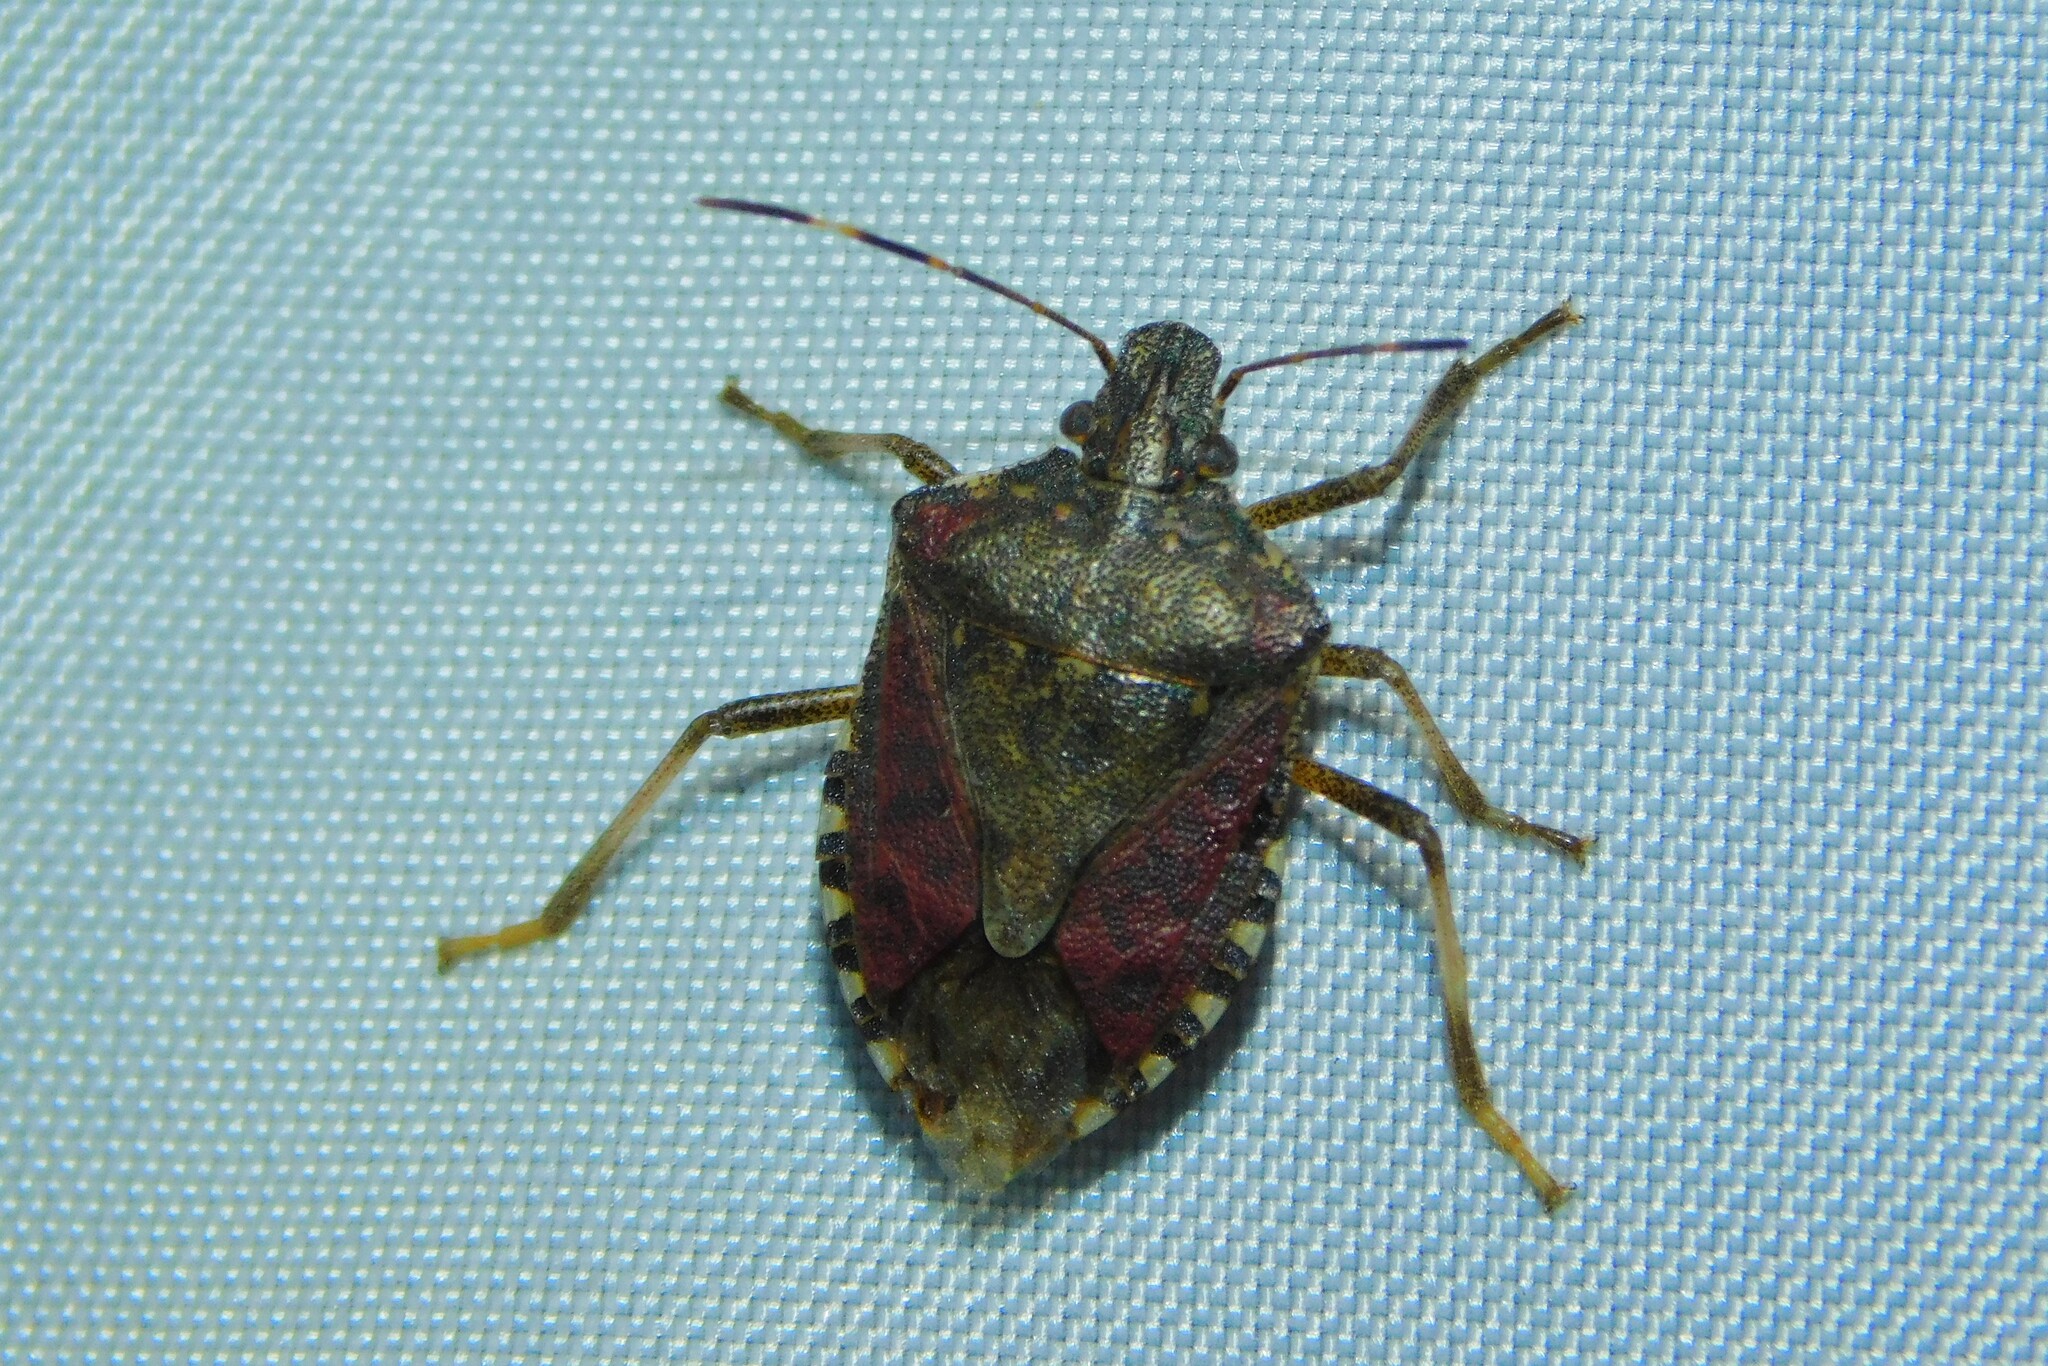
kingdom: Animalia
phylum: Arthropoda
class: Insecta
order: Hemiptera
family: Pentatomidae
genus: Halyomorpha
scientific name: Halyomorpha halys
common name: Brown marmorated stink bug
